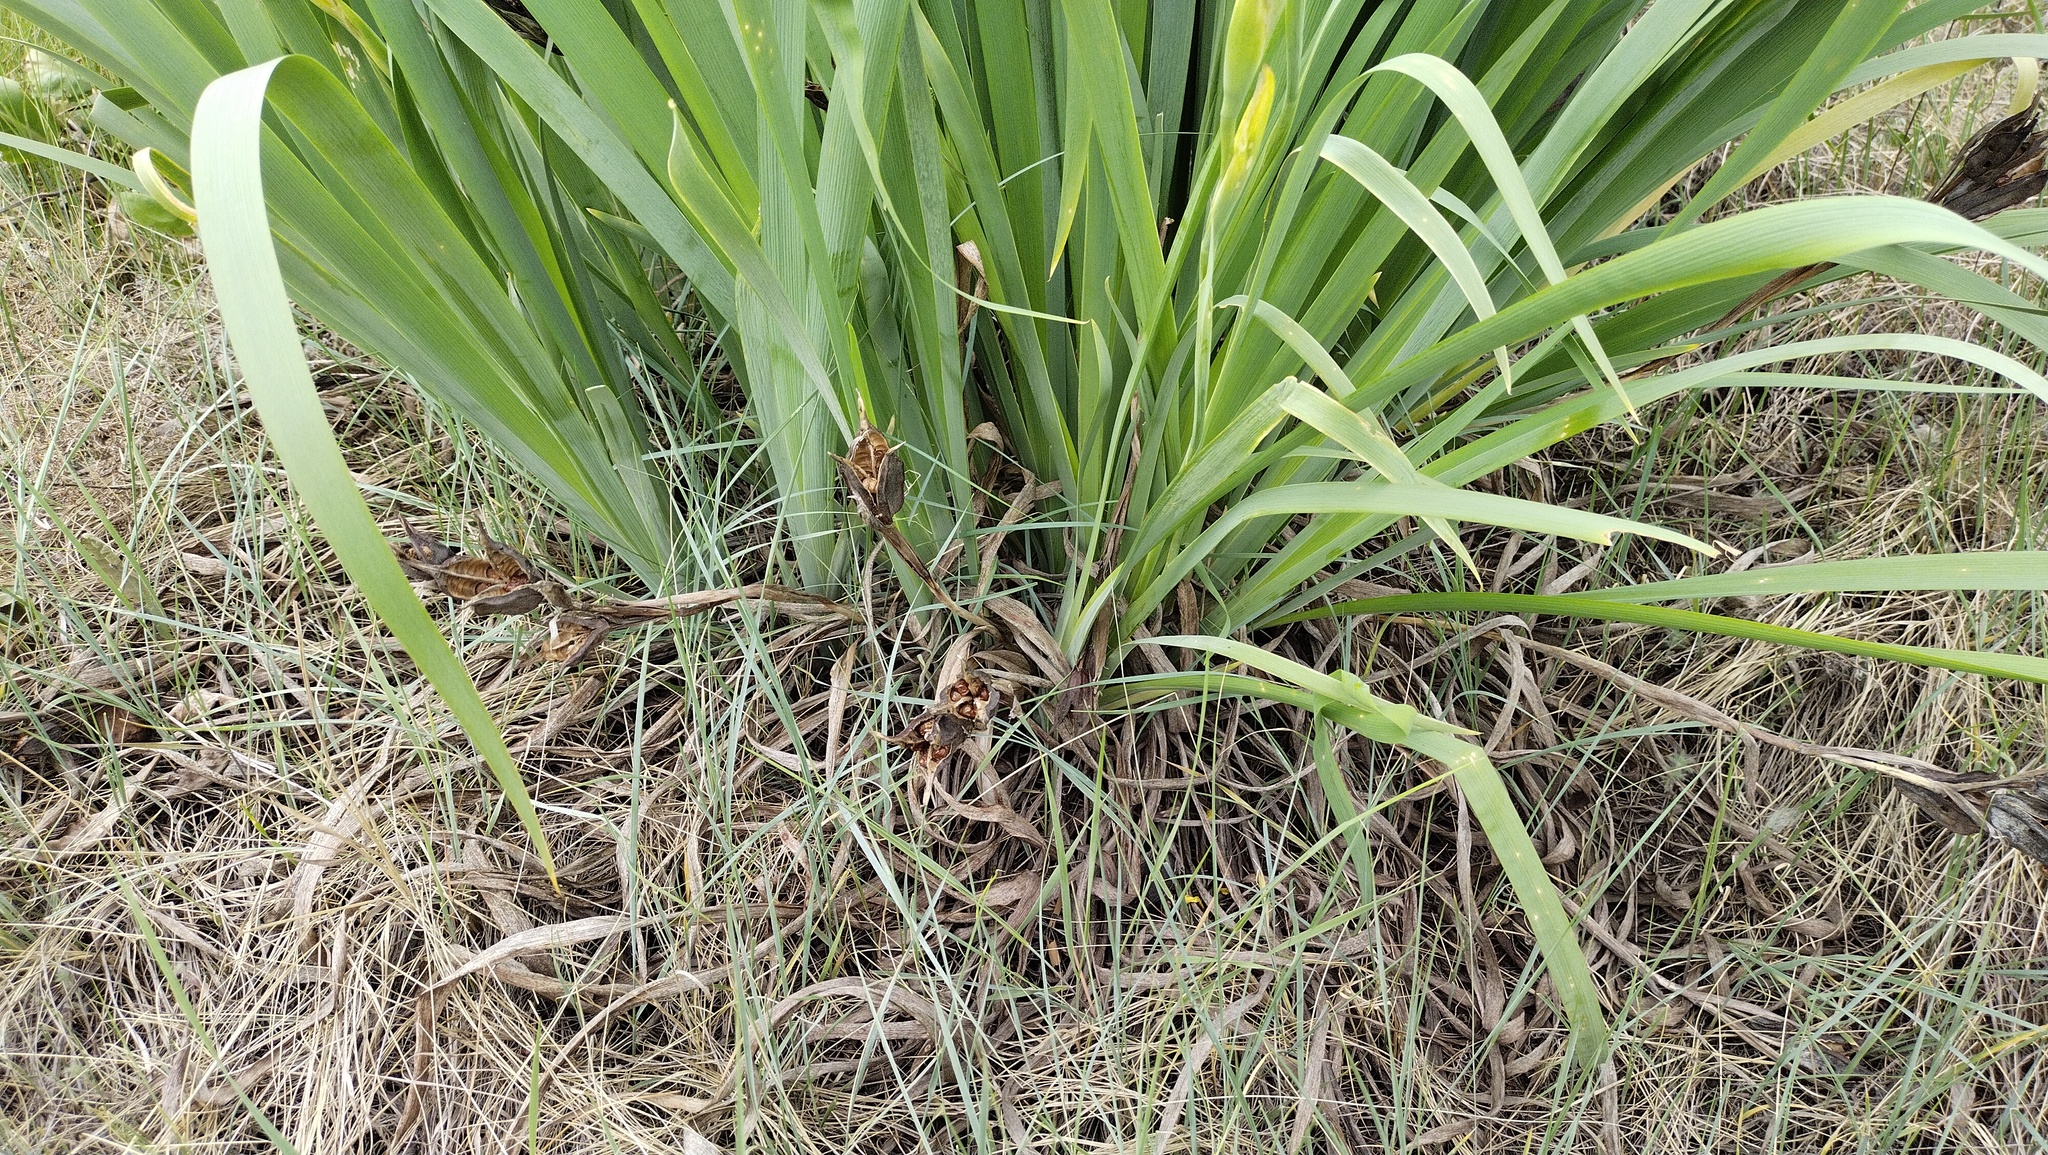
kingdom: Plantae
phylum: Tracheophyta
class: Liliopsida
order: Asparagales
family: Iridaceae
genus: Iris
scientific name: Iris halophila
